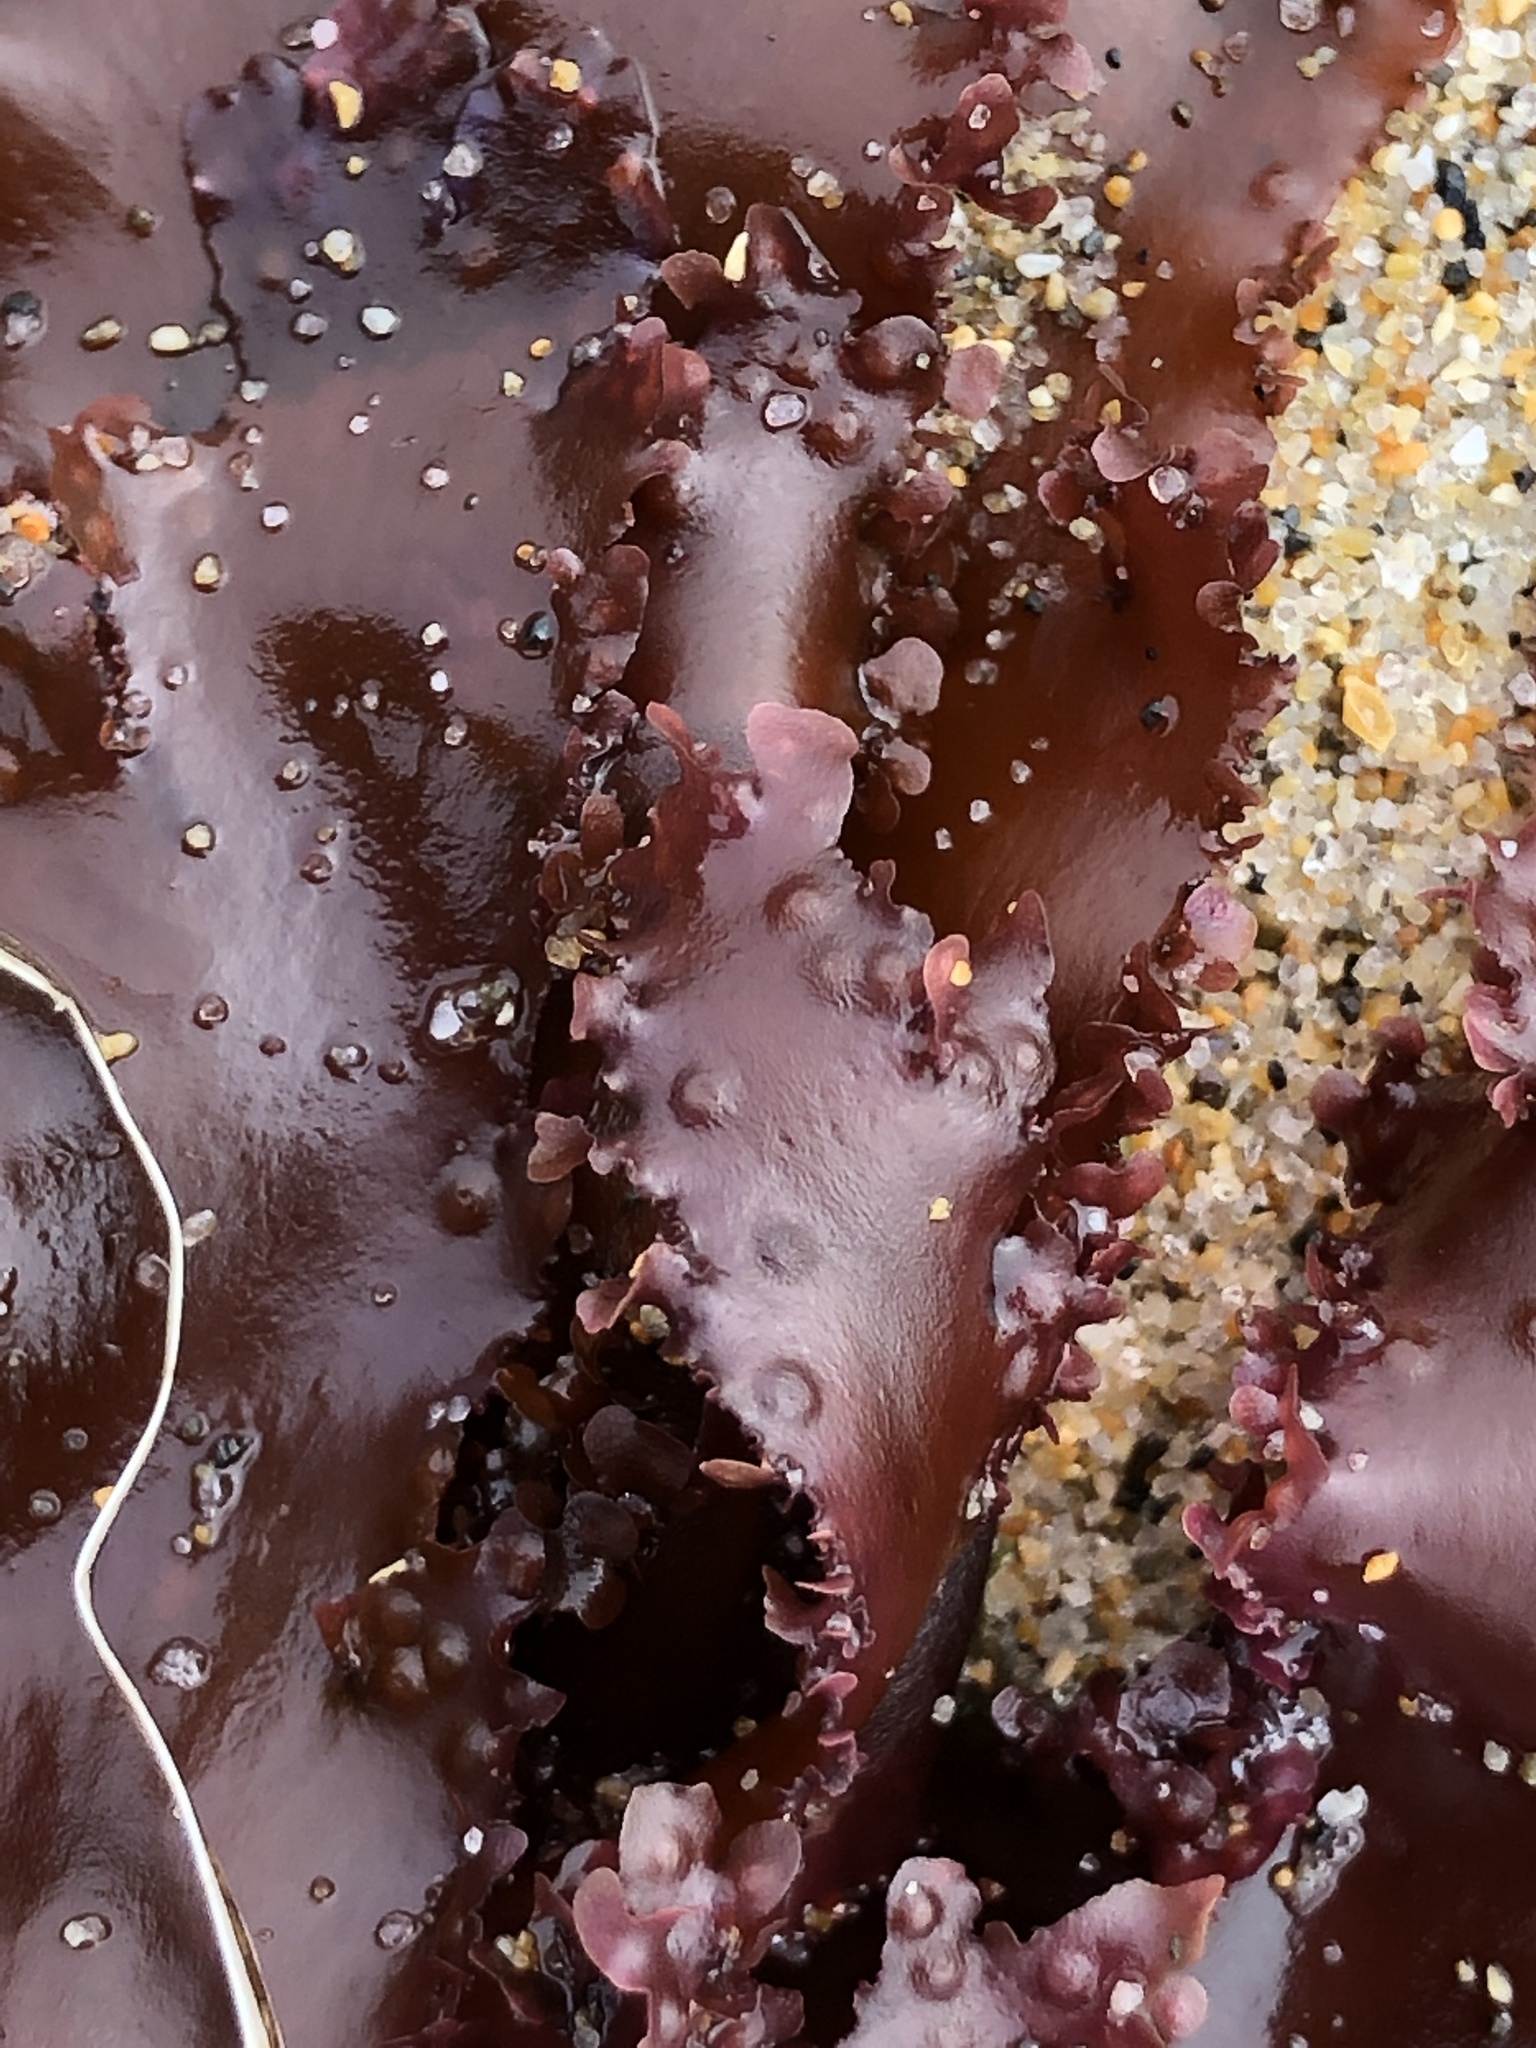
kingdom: Plantae
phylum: Rhodophyta
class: Florideophyceae
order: Ceramiales
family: Delesseriaceae
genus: Cryptopleura
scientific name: Cryptopleura ruprechtiana
